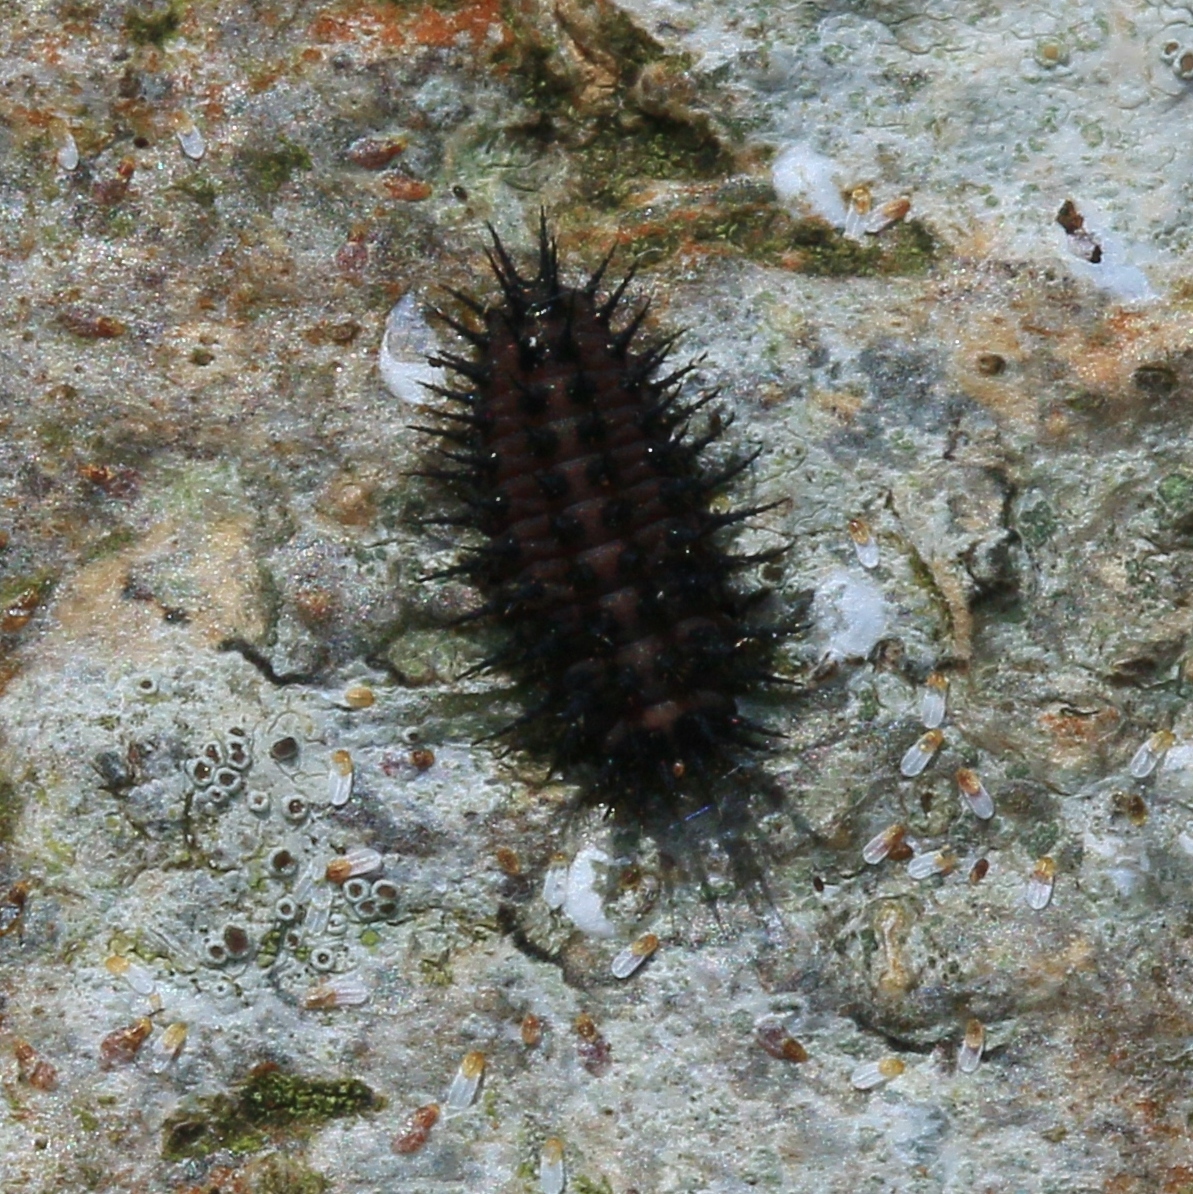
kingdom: Animalia
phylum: Arthropoda
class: Insecta
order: Coleoptera
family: Coccinellidae
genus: Chilocorus
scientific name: Chilocorus renipustulatus
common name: Kidney-spot ladybird
